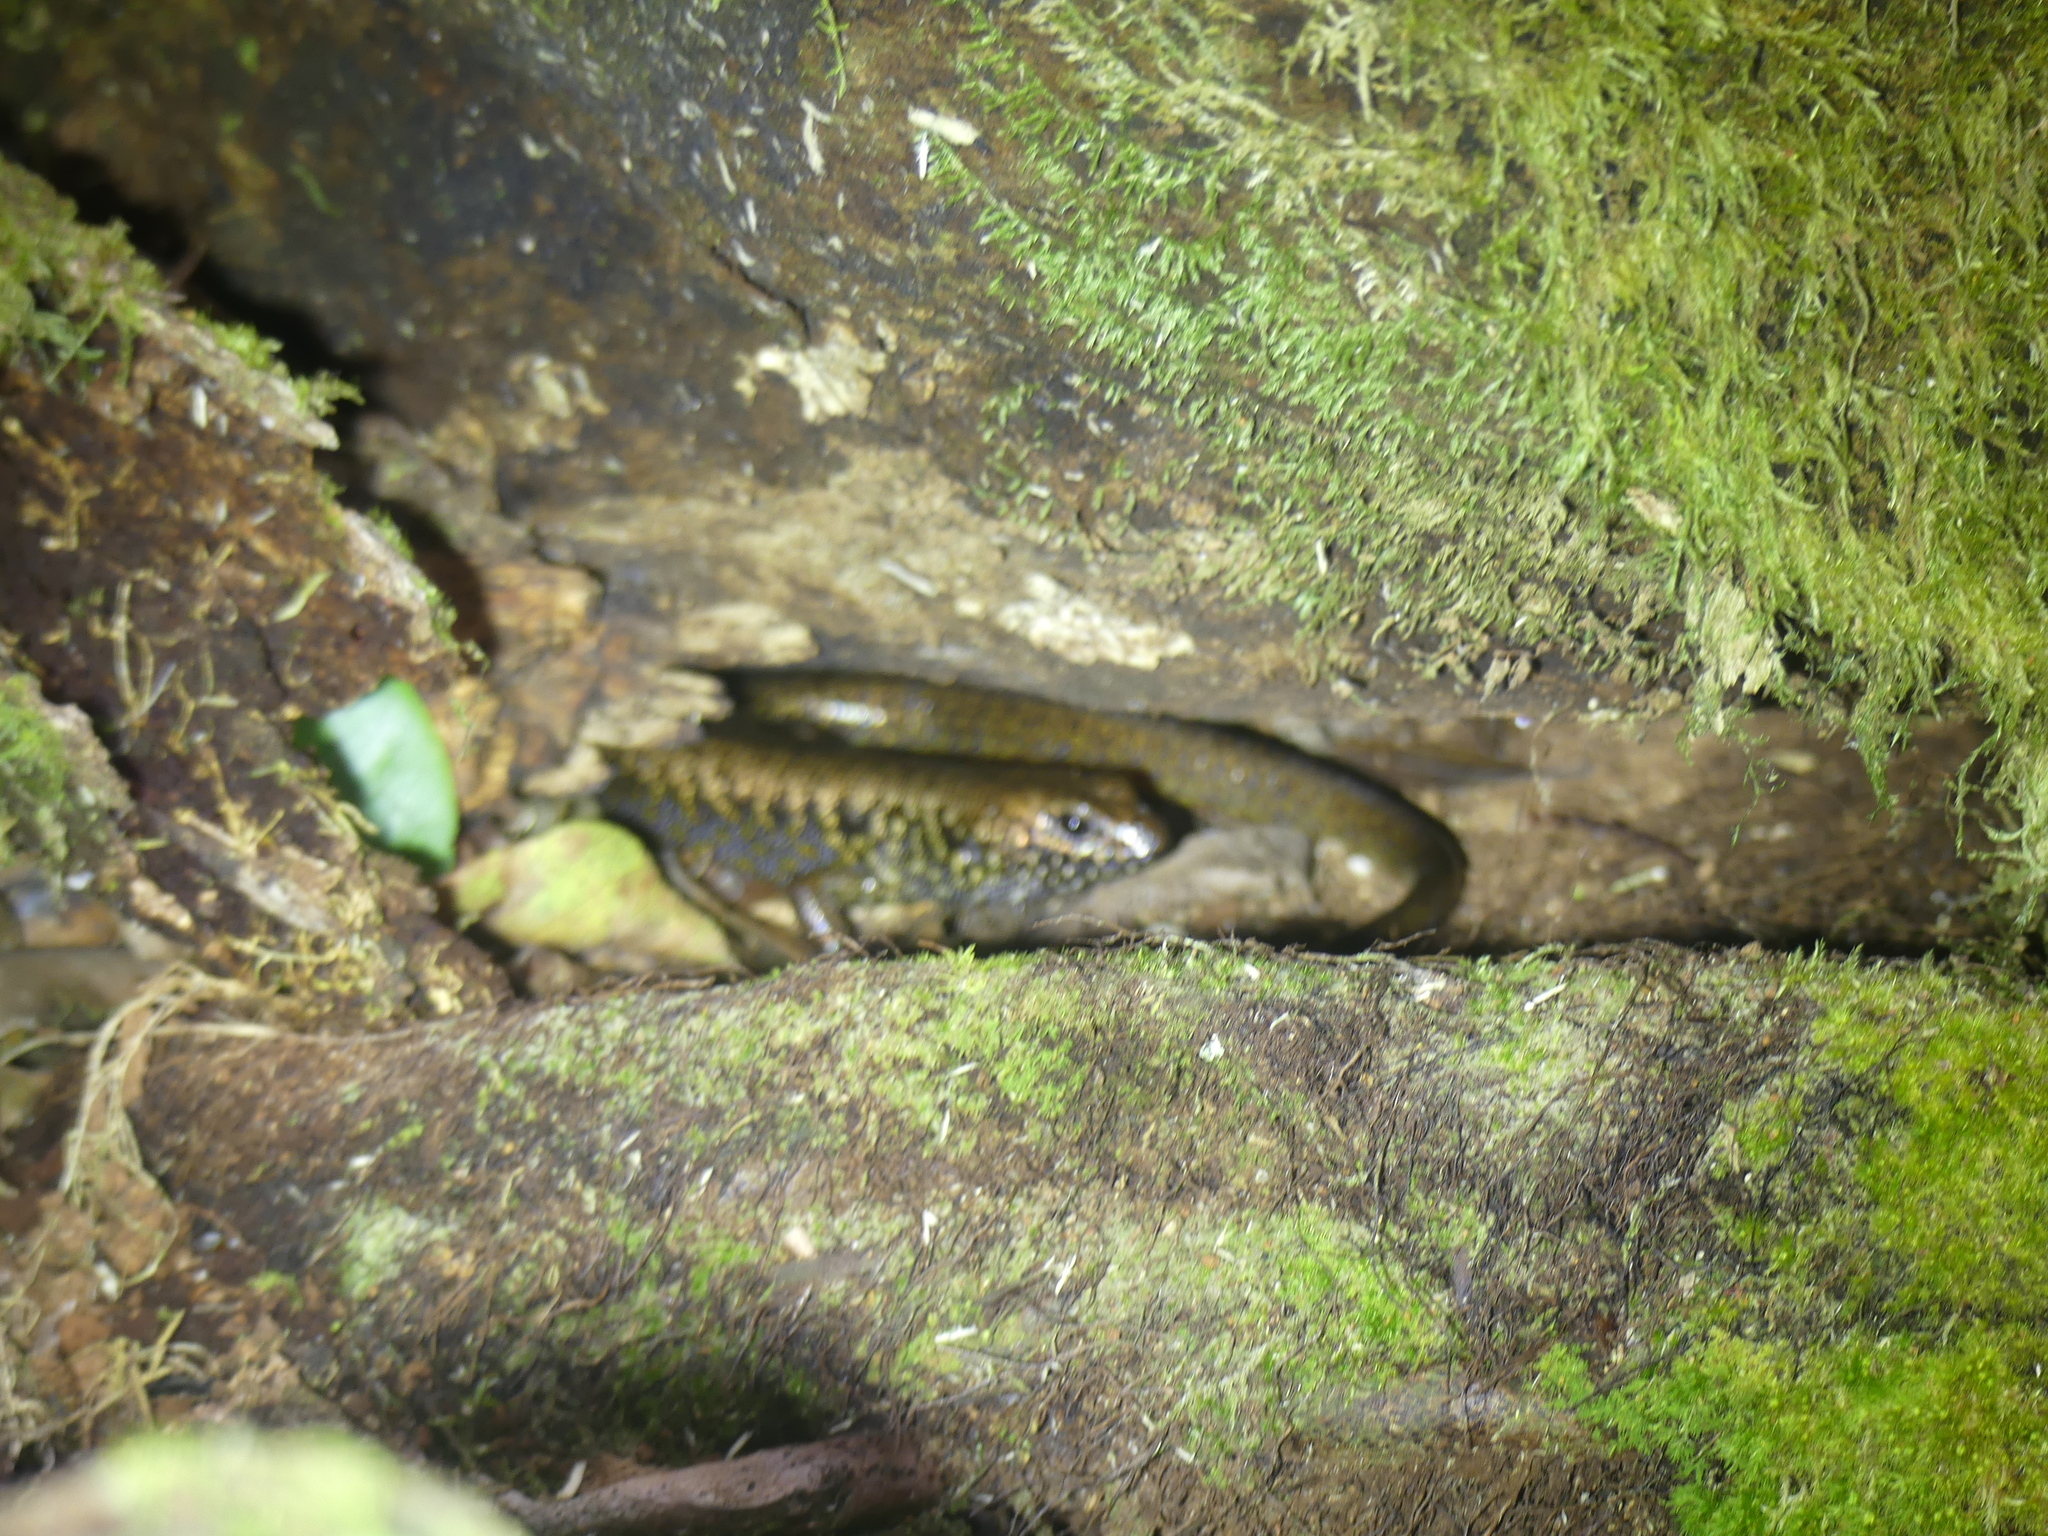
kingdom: Animalia
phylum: Chordata
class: Squamata
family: Scincidae
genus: Silvascincus
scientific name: Silvascincus murrayi
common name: Blue-speckled forest-skink
